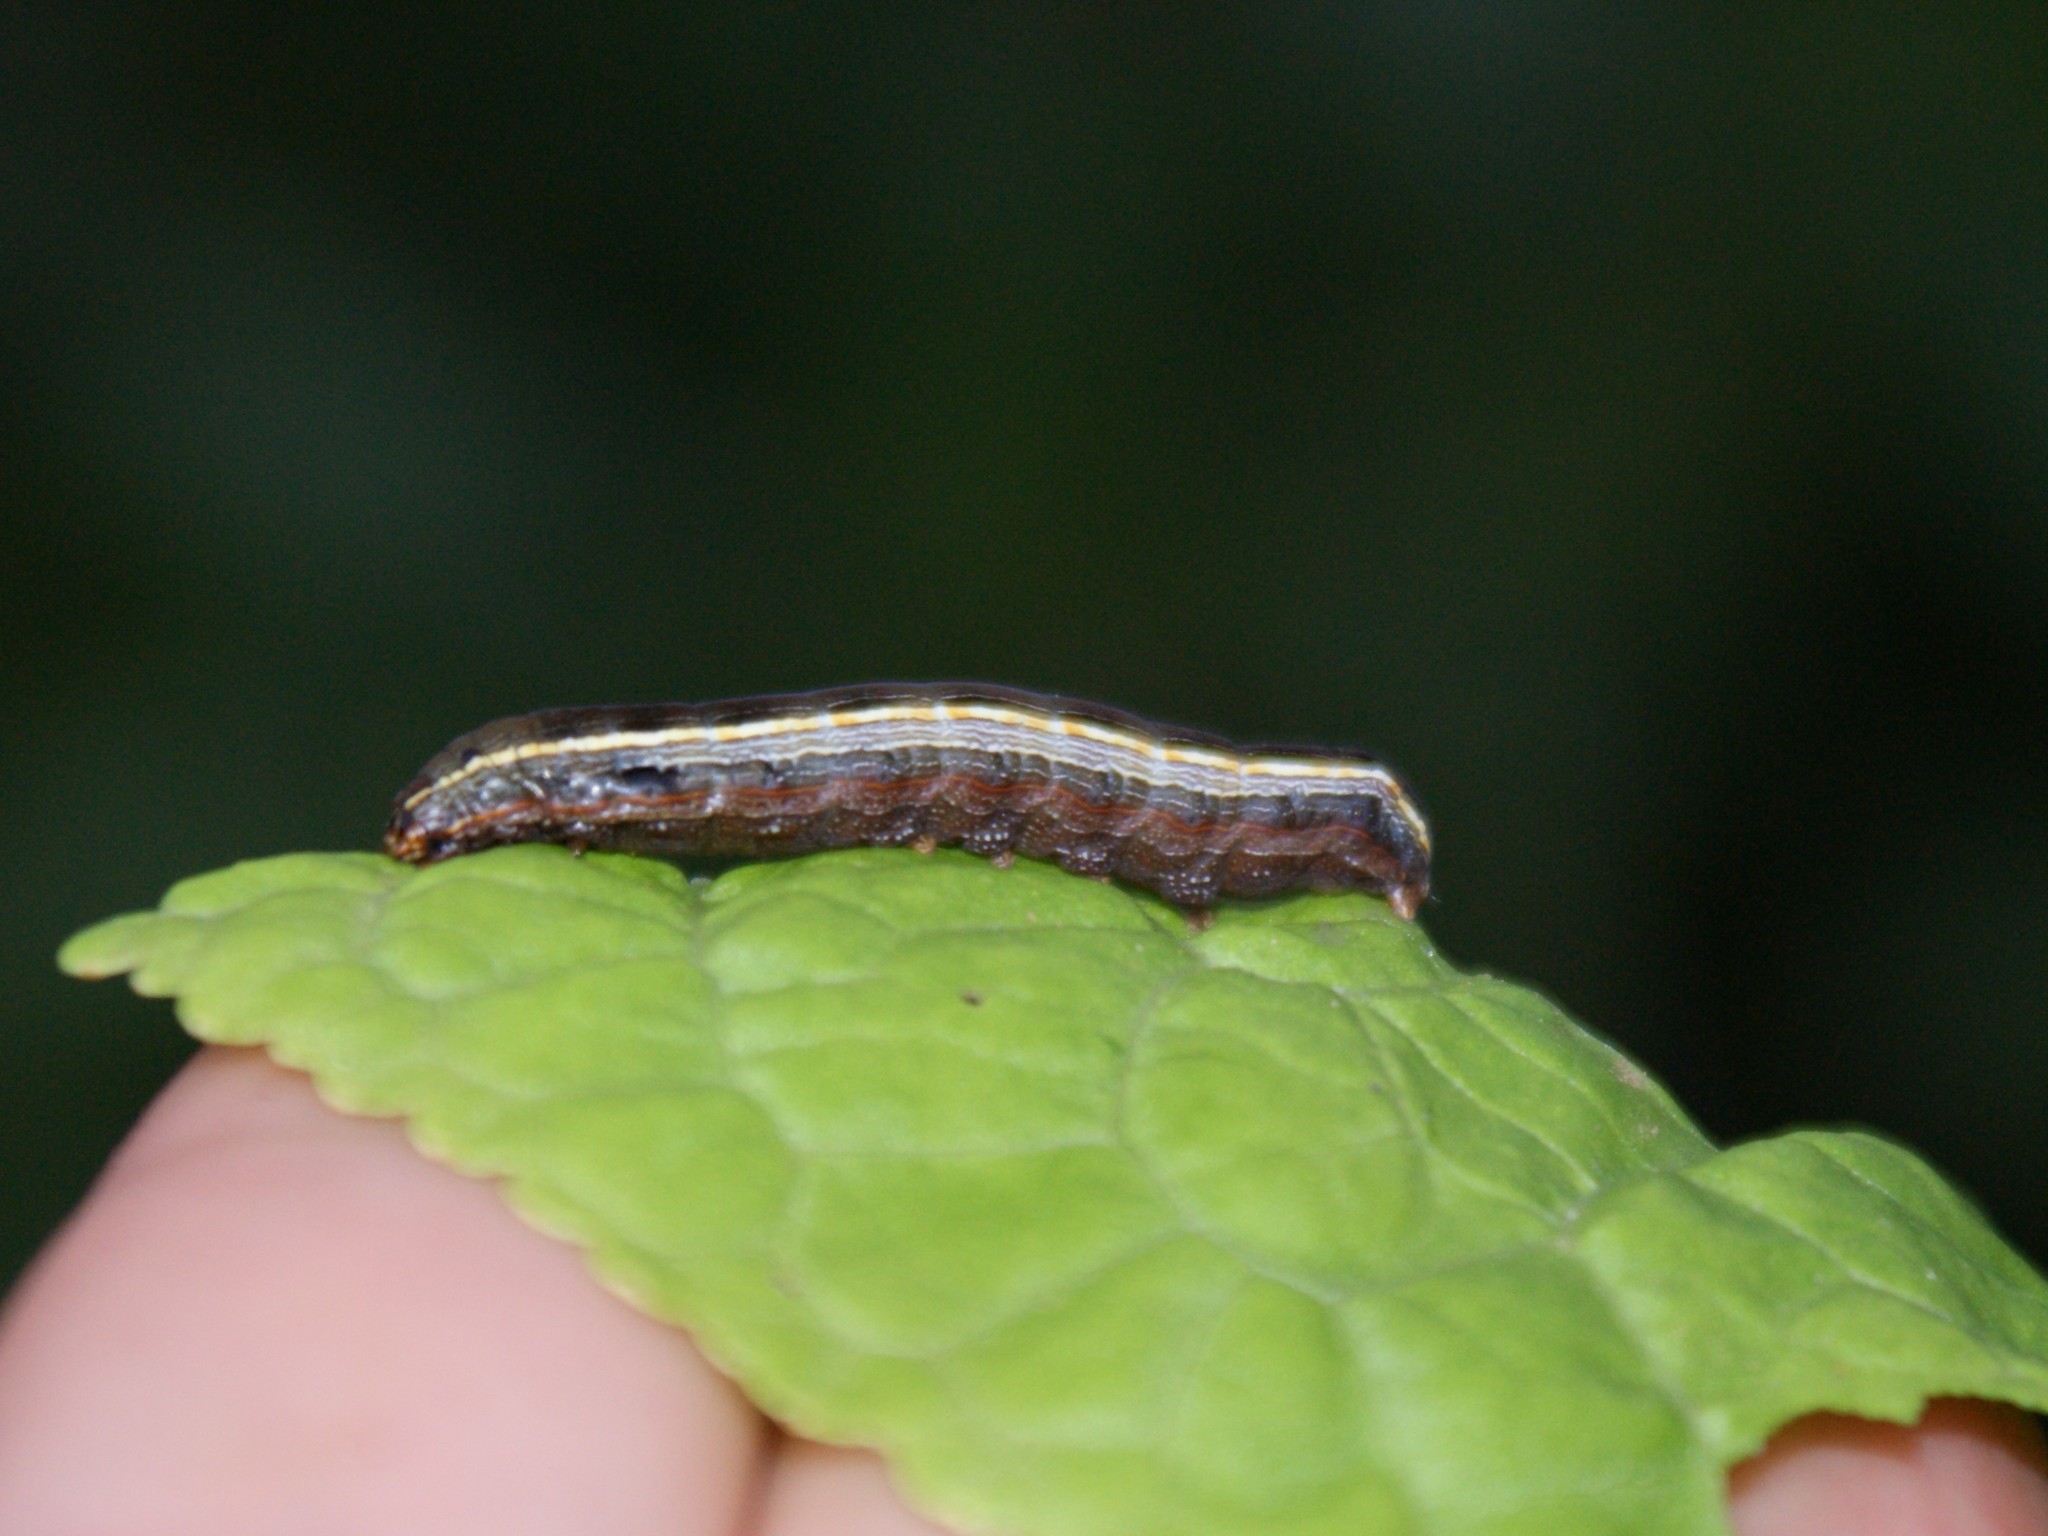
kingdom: Animalia
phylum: Arthropoda
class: Insecta
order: Lepidoptera
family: Noctuidae
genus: Spodoptera
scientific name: Spodoptera ornithogalli
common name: Yellow-striped armyworm
